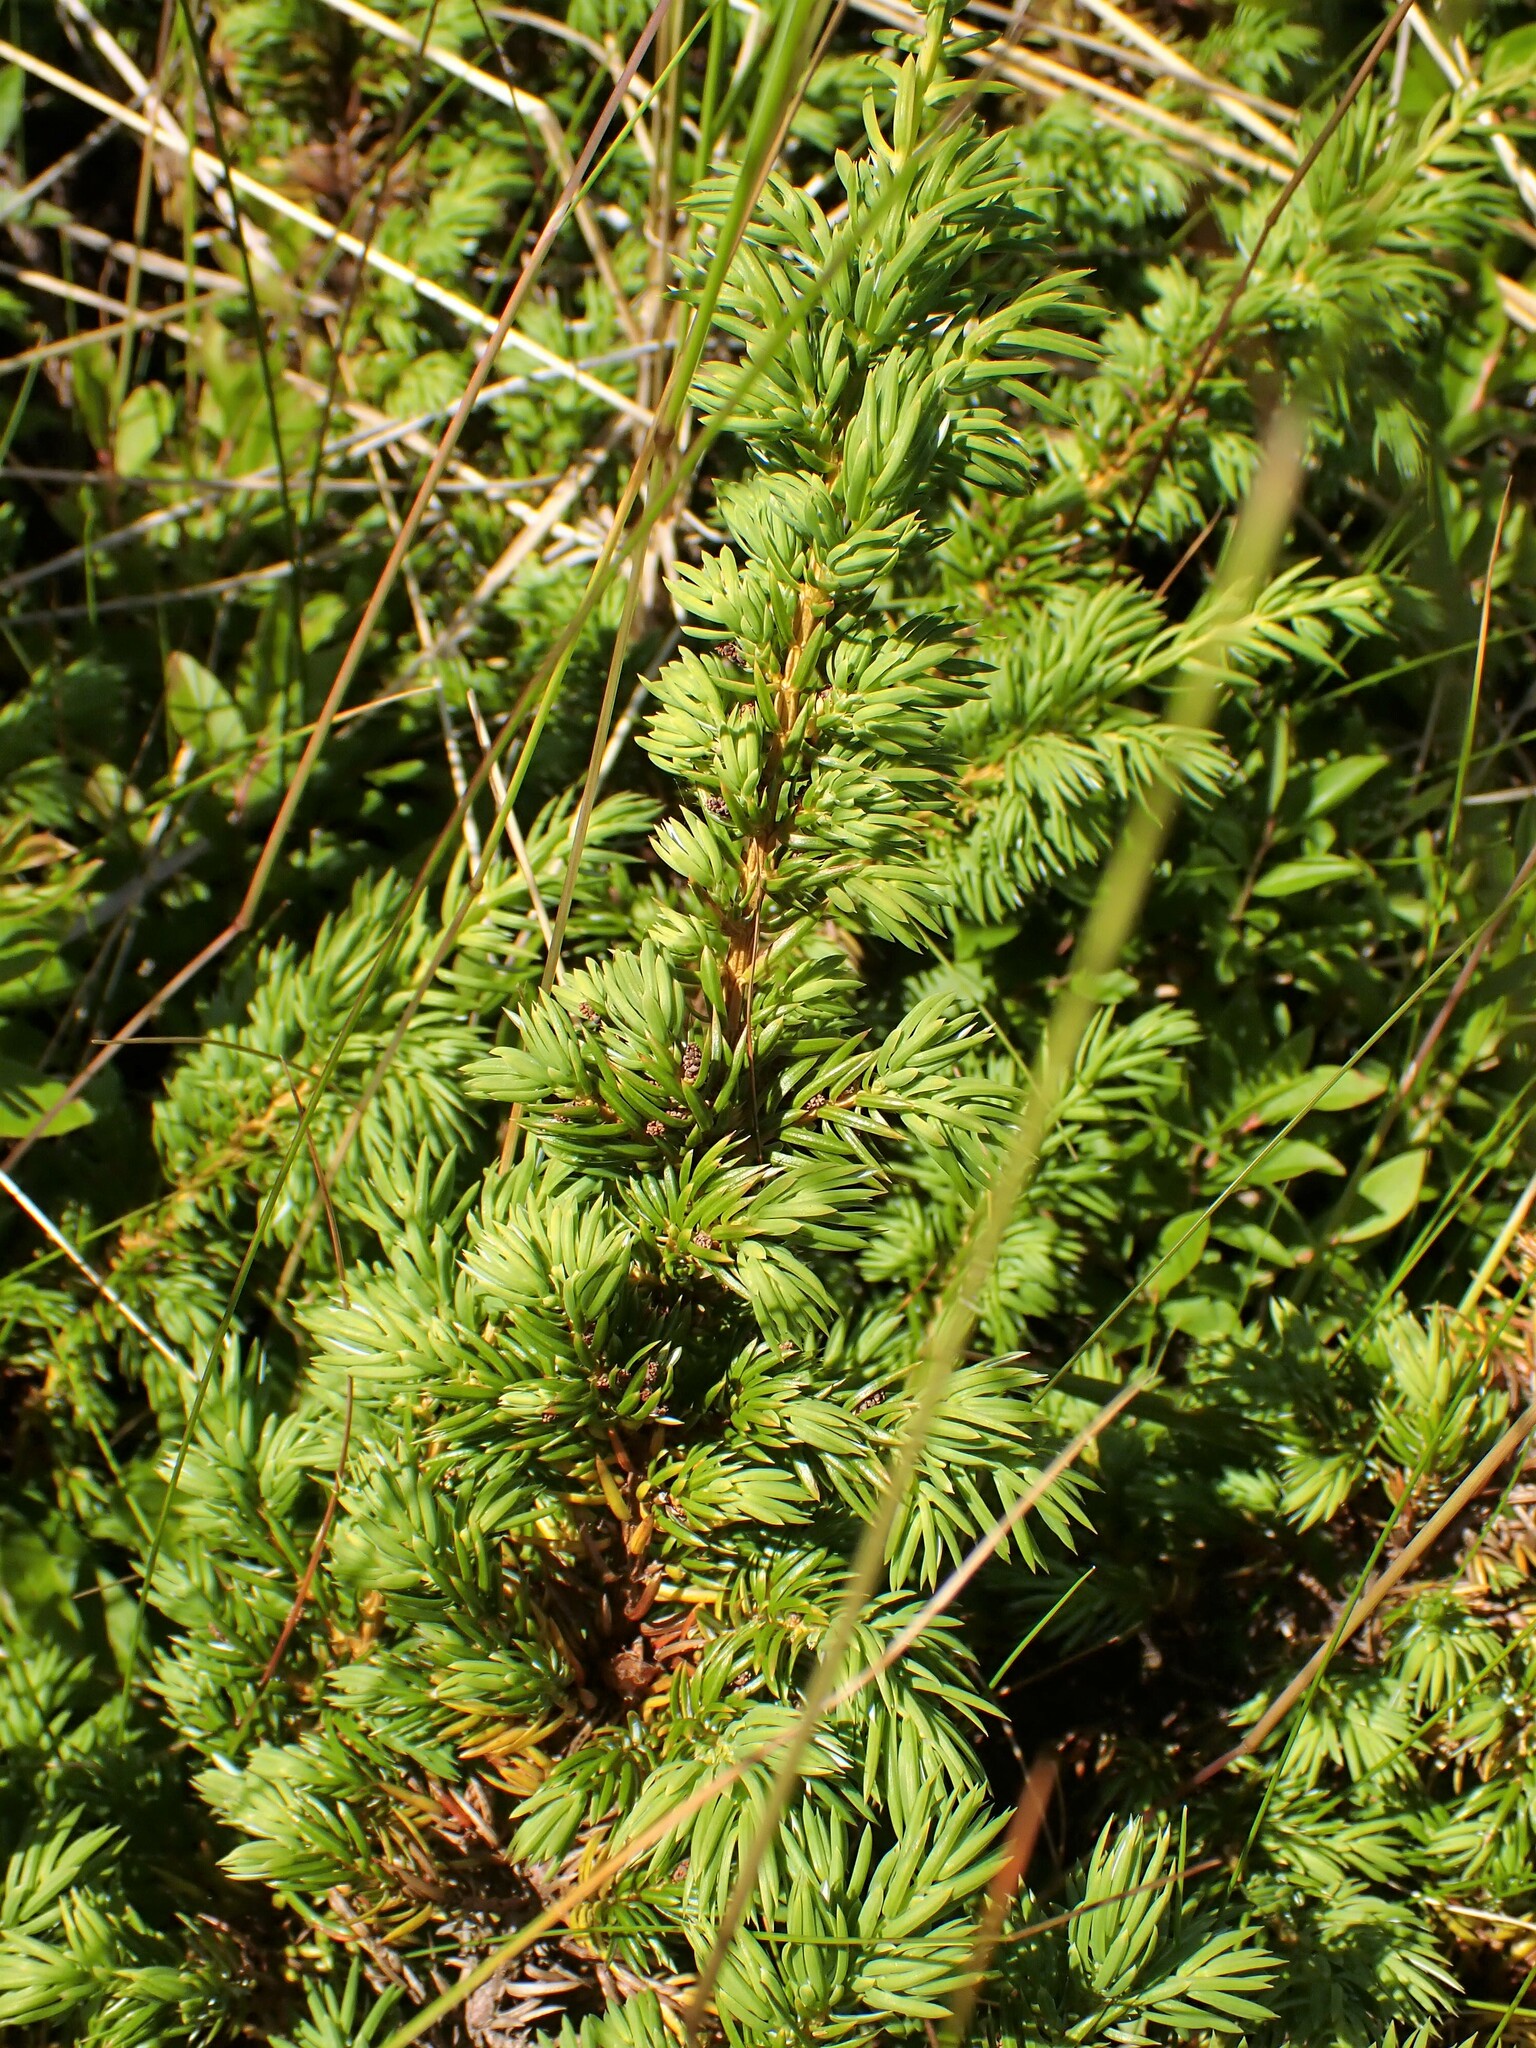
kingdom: Plantae
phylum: Tracheophyta
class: Pinopsida
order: Pinales
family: Cupressaceae
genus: Juniperus
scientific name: Juniperus communis
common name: Common juniper
